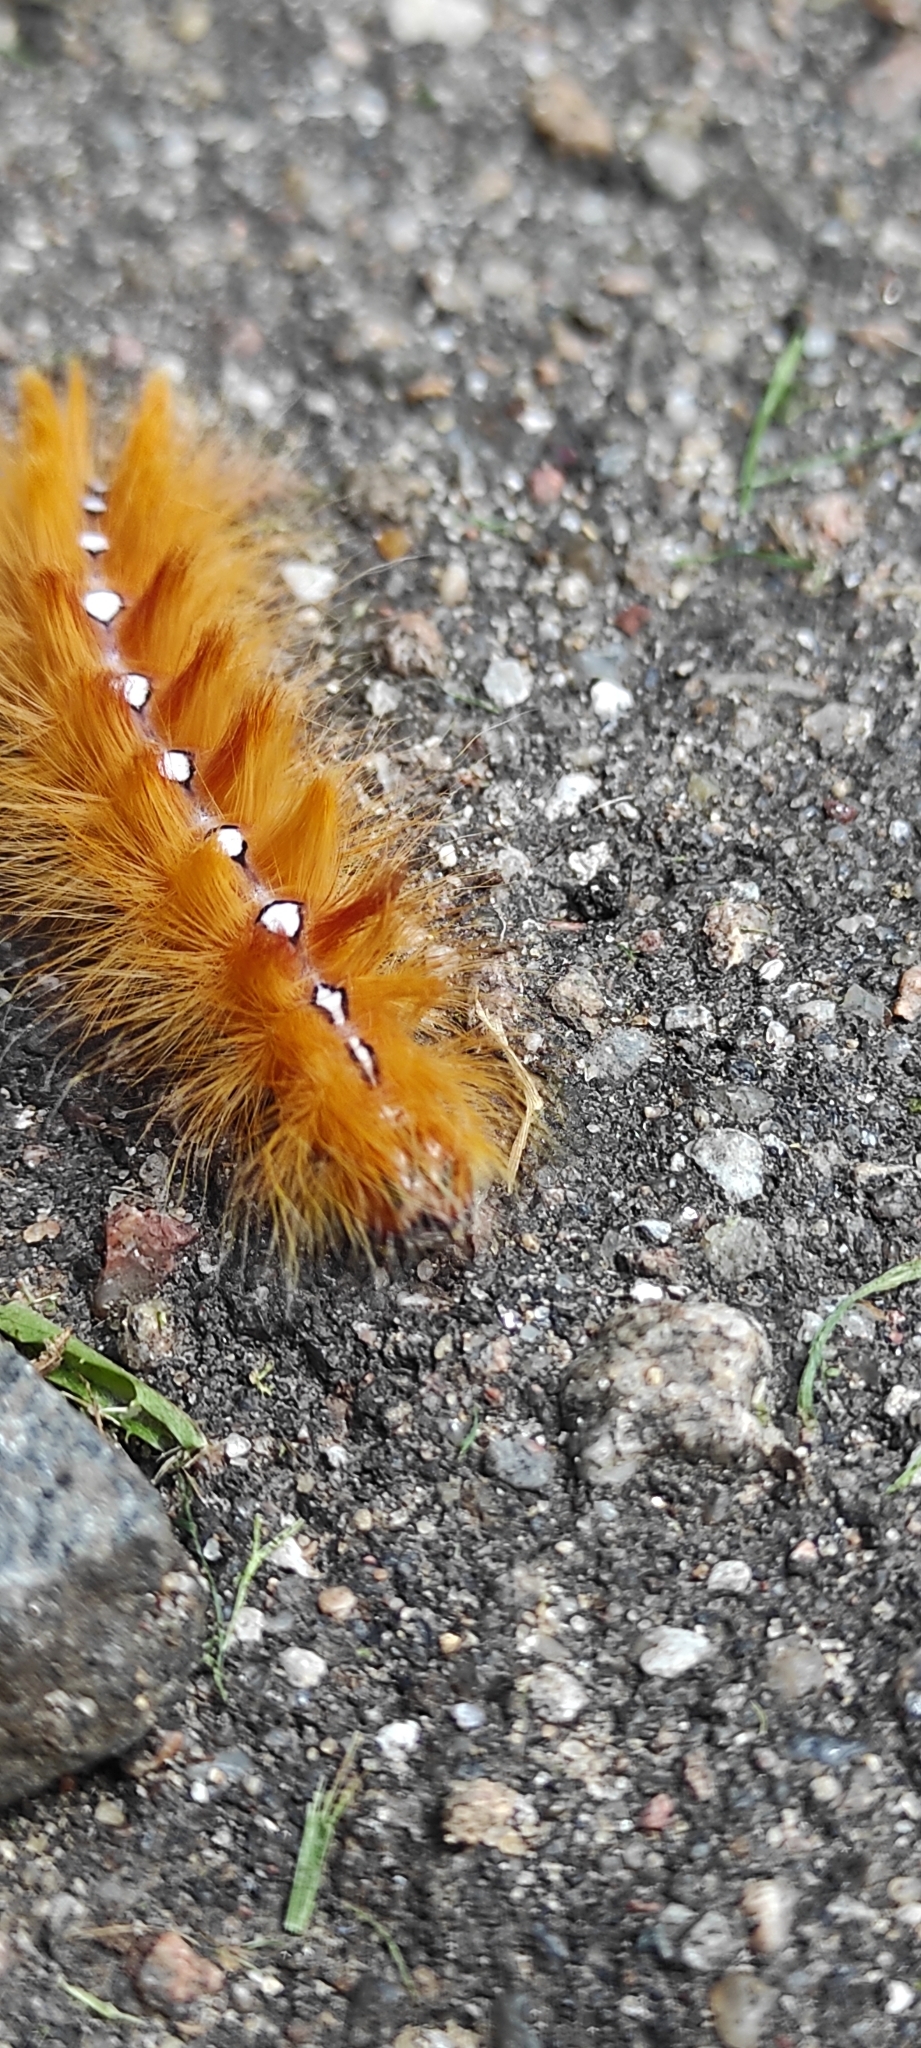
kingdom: Animalia
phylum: Arthropoda
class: Insecta
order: Lepidoptera
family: Noctuidae
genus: Acronicta
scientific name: Acronicta aceris
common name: Sycamore
